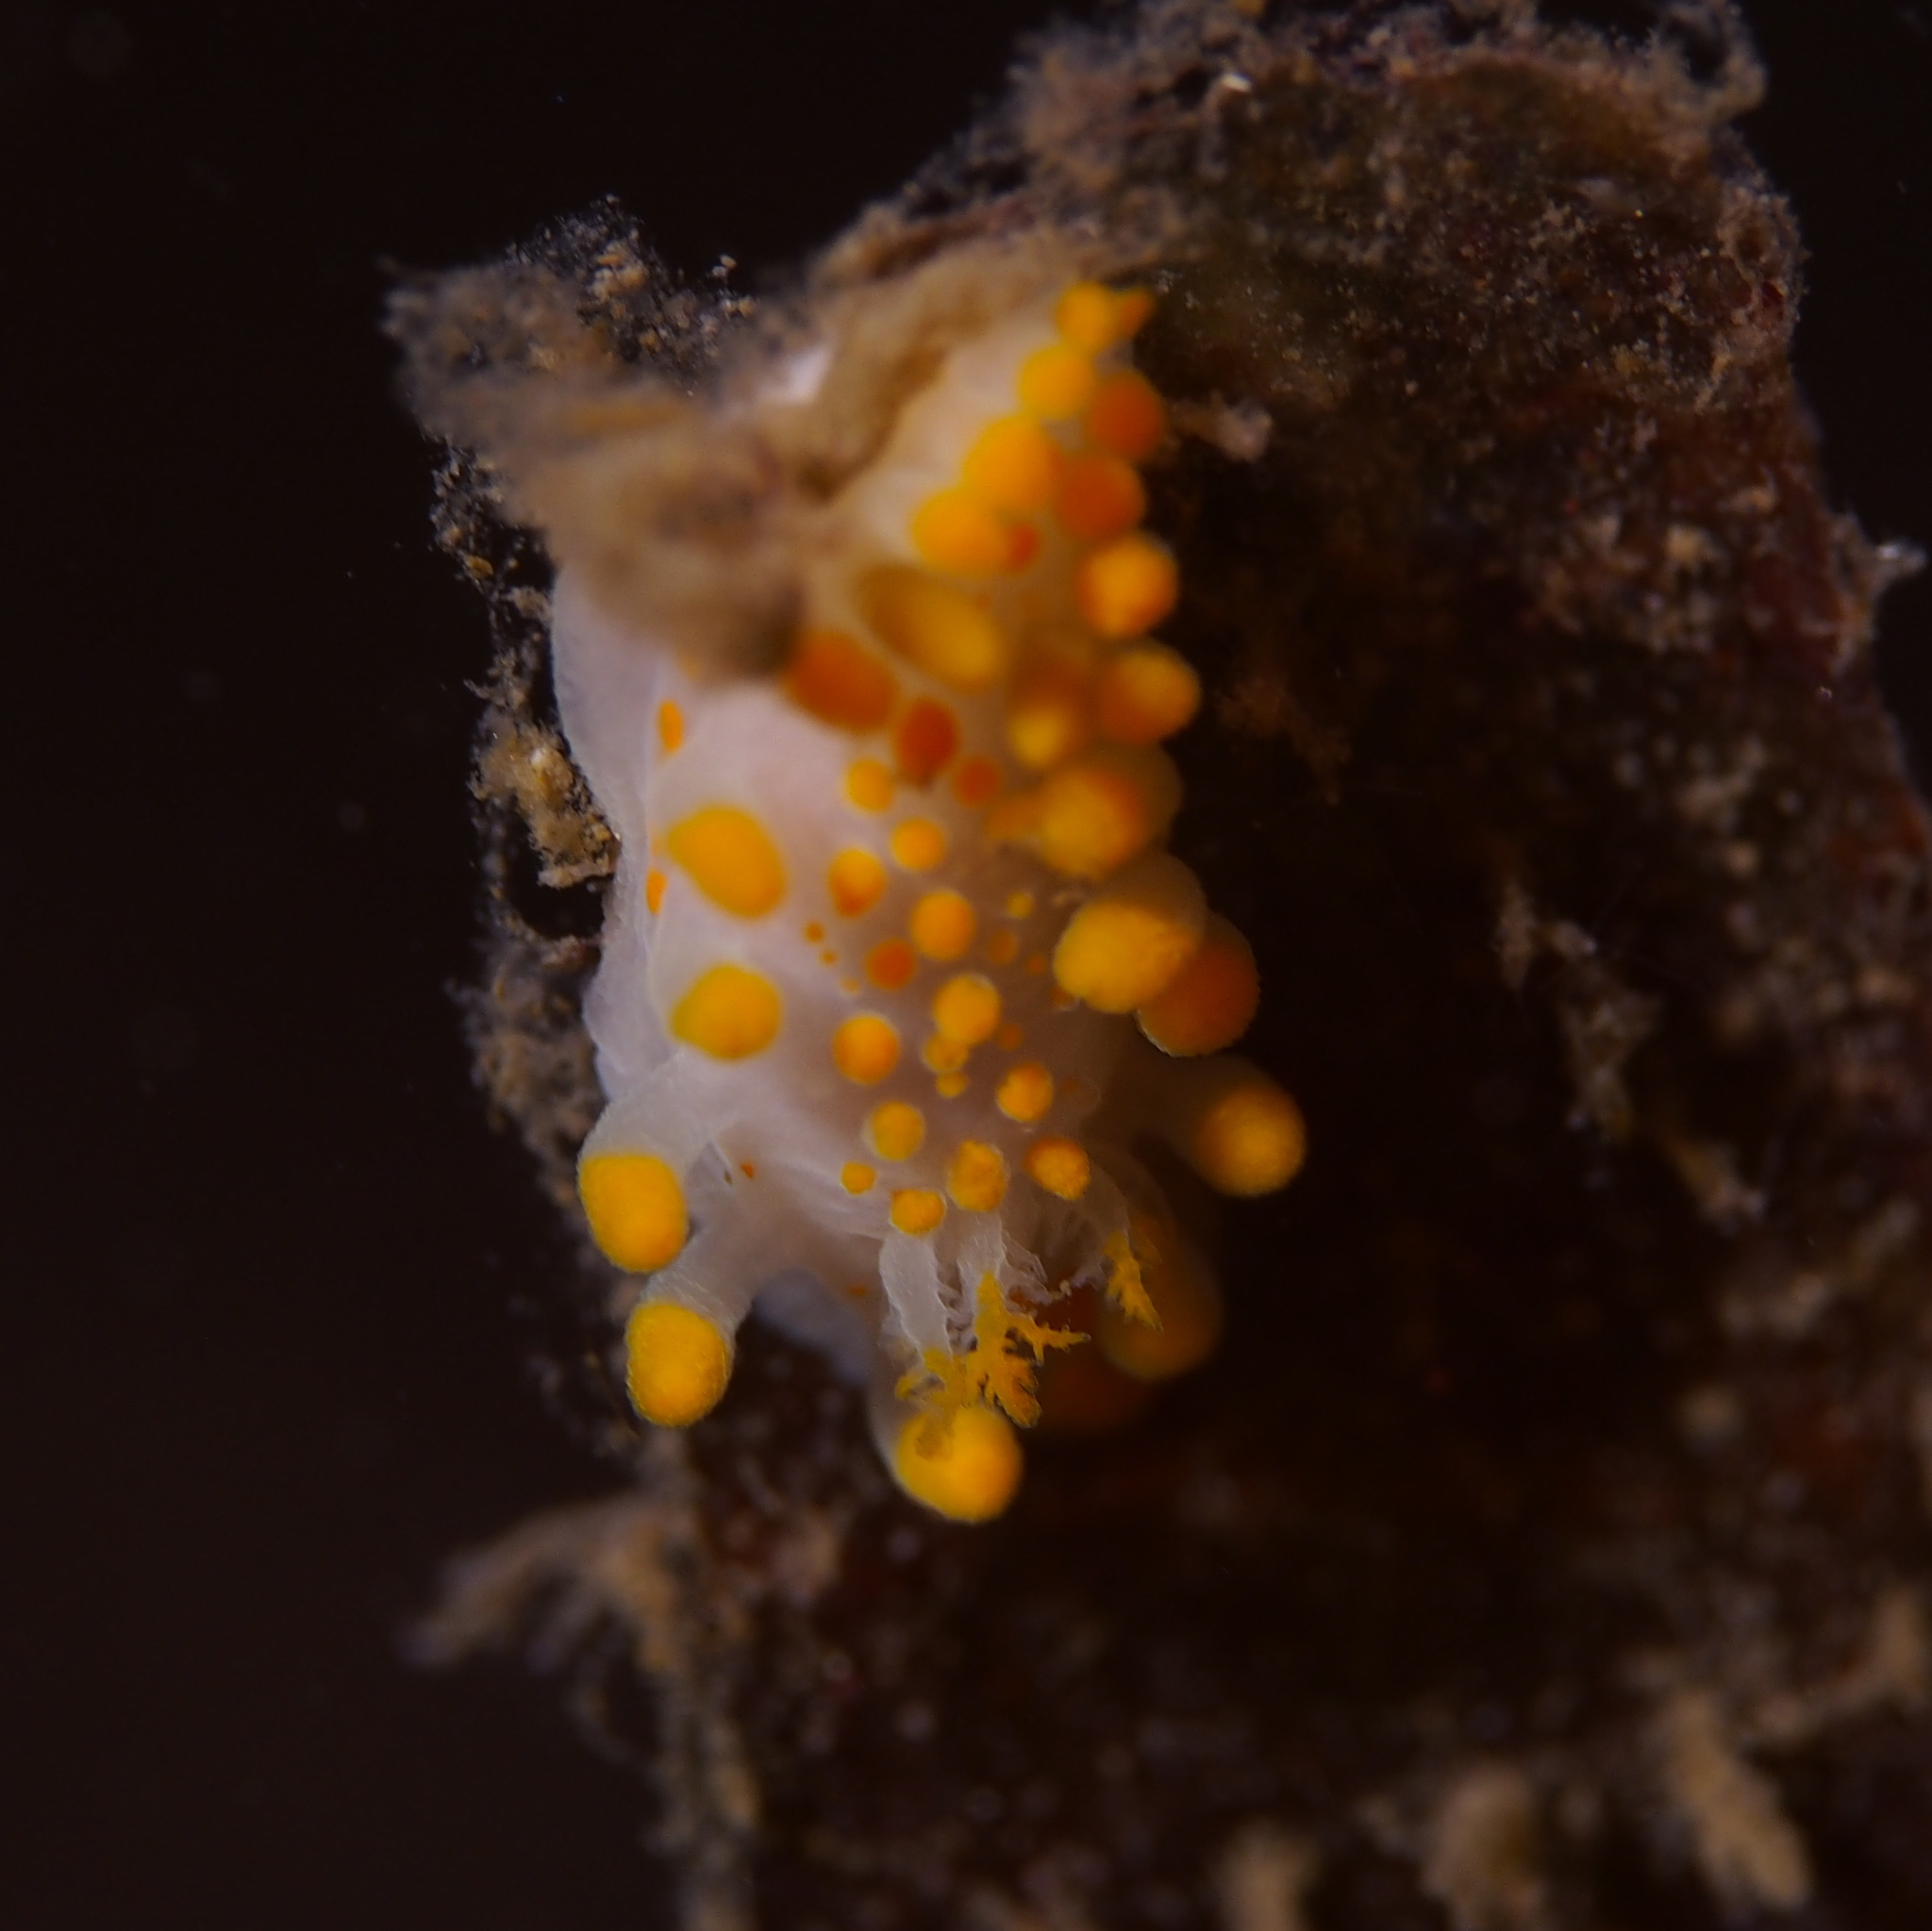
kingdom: Animalia
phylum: Mollusca
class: Gastropoda
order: Nudibranchia
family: Polyceridae
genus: Limacia
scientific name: Limacia clavigera
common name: Orange-clubbed sea slug
